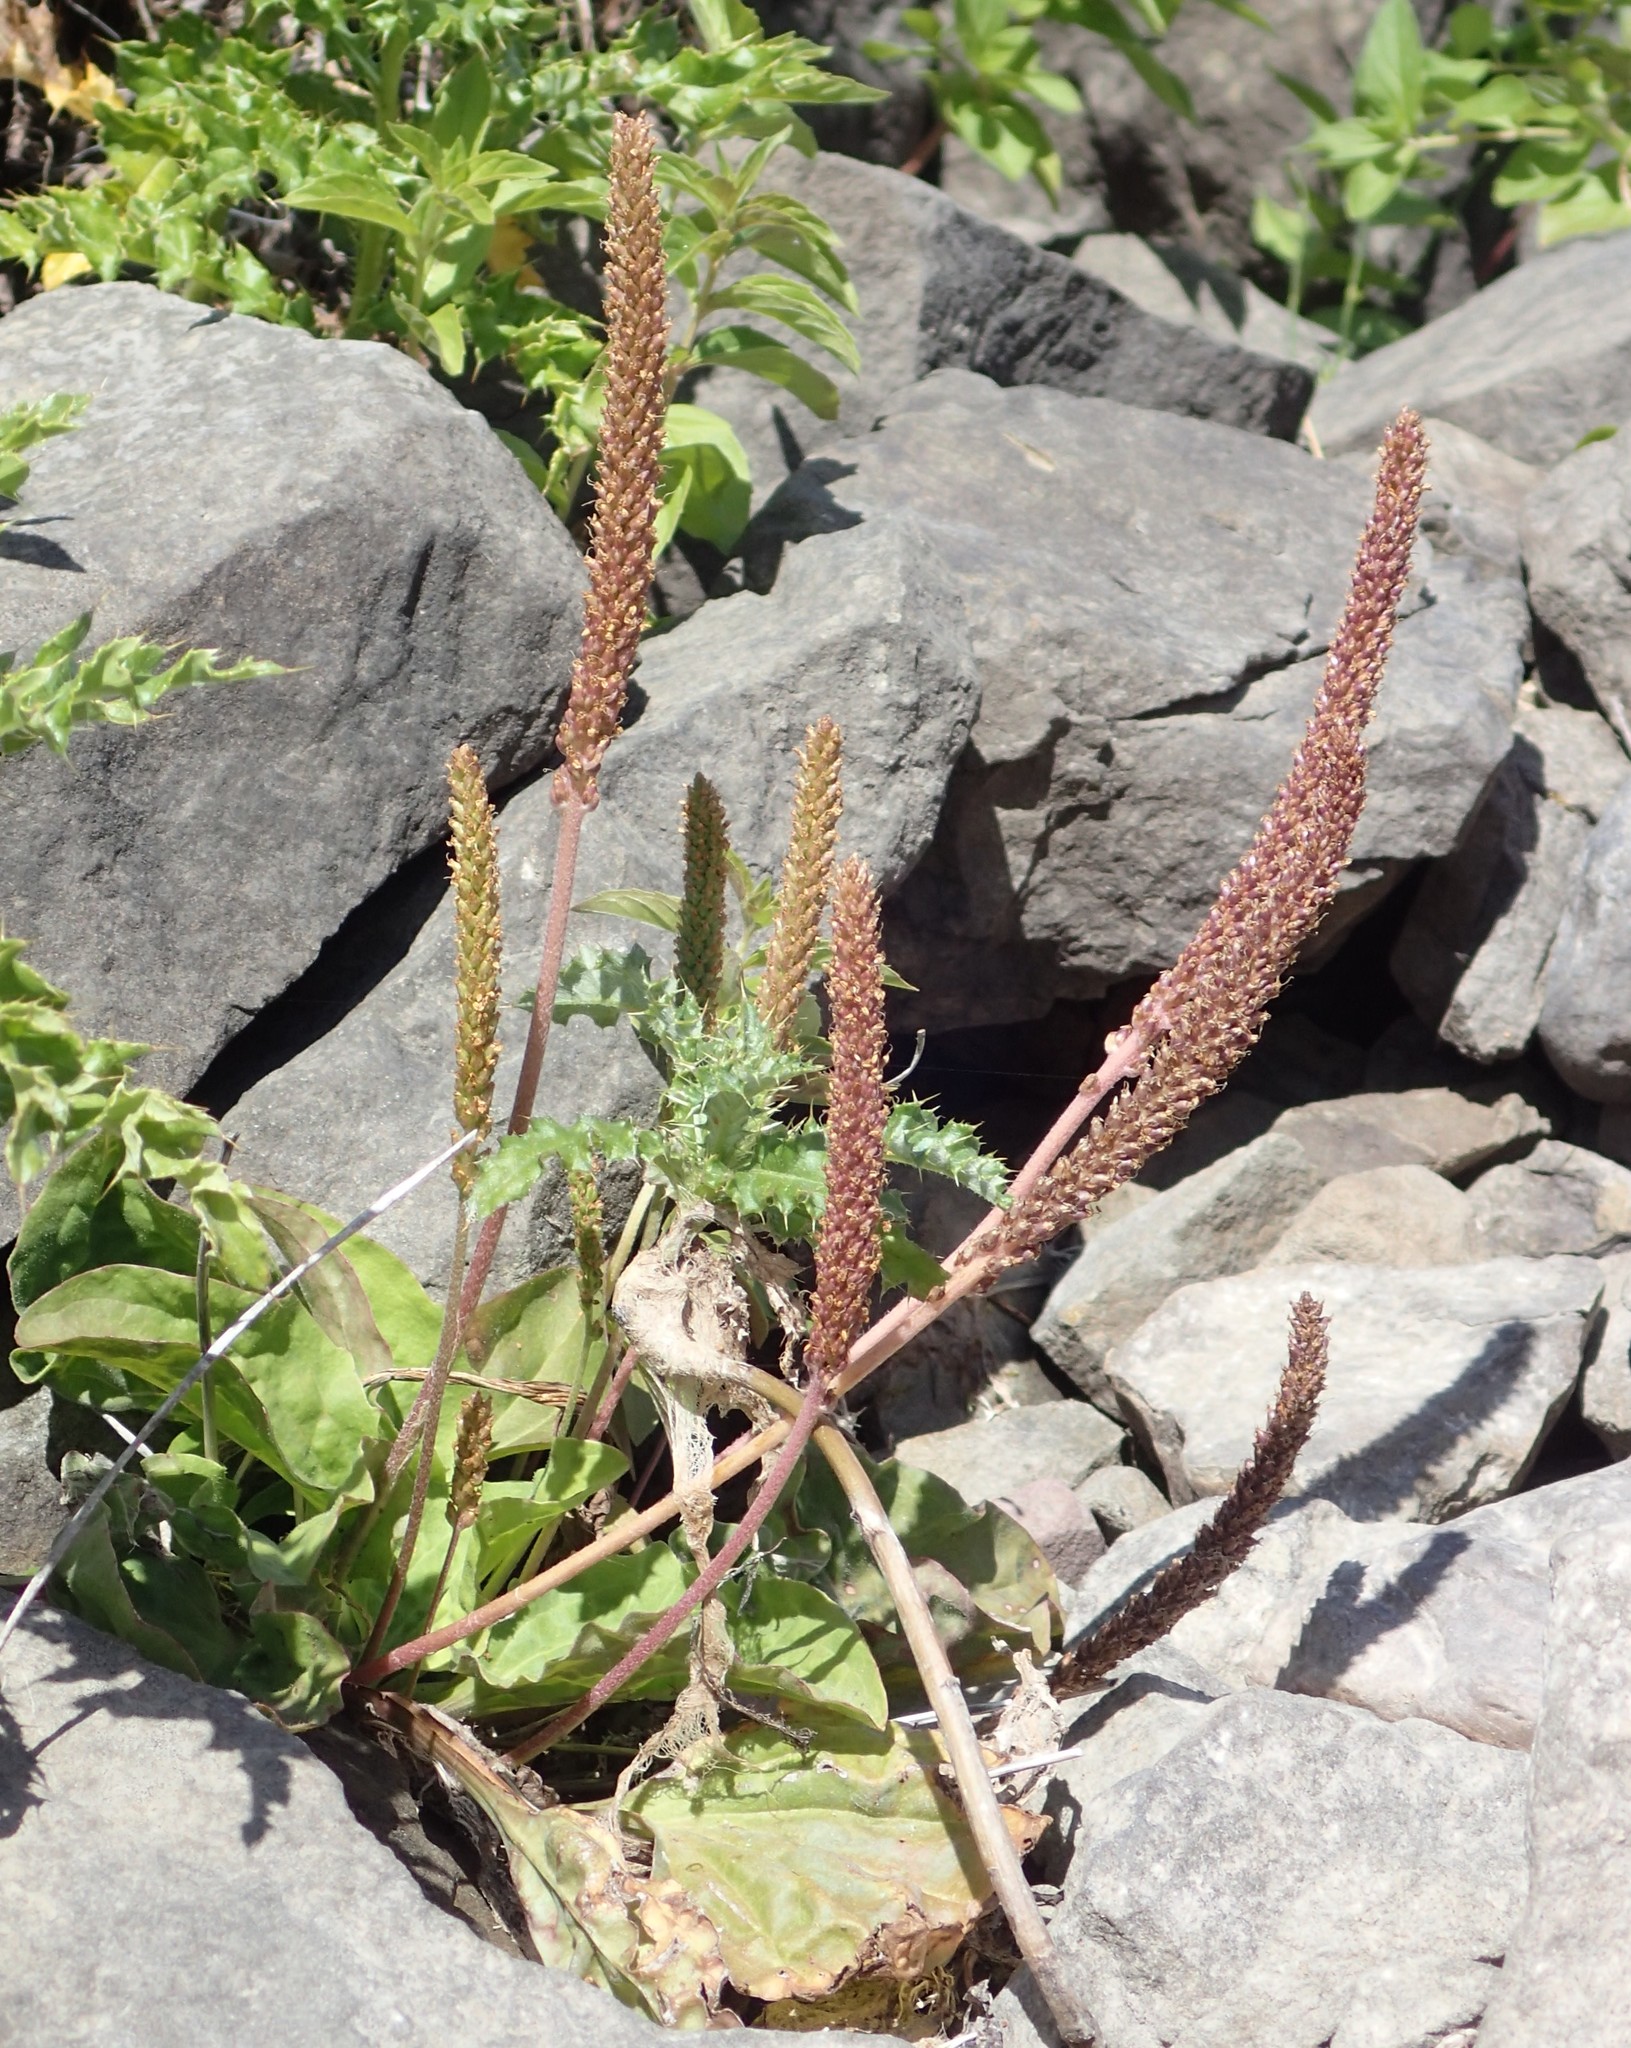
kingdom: Plantae
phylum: Tracheophyta
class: Magnoliopsida
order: Lamiales
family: Plantaginaceae
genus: Plantago
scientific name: Plantago major
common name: Common plantain
